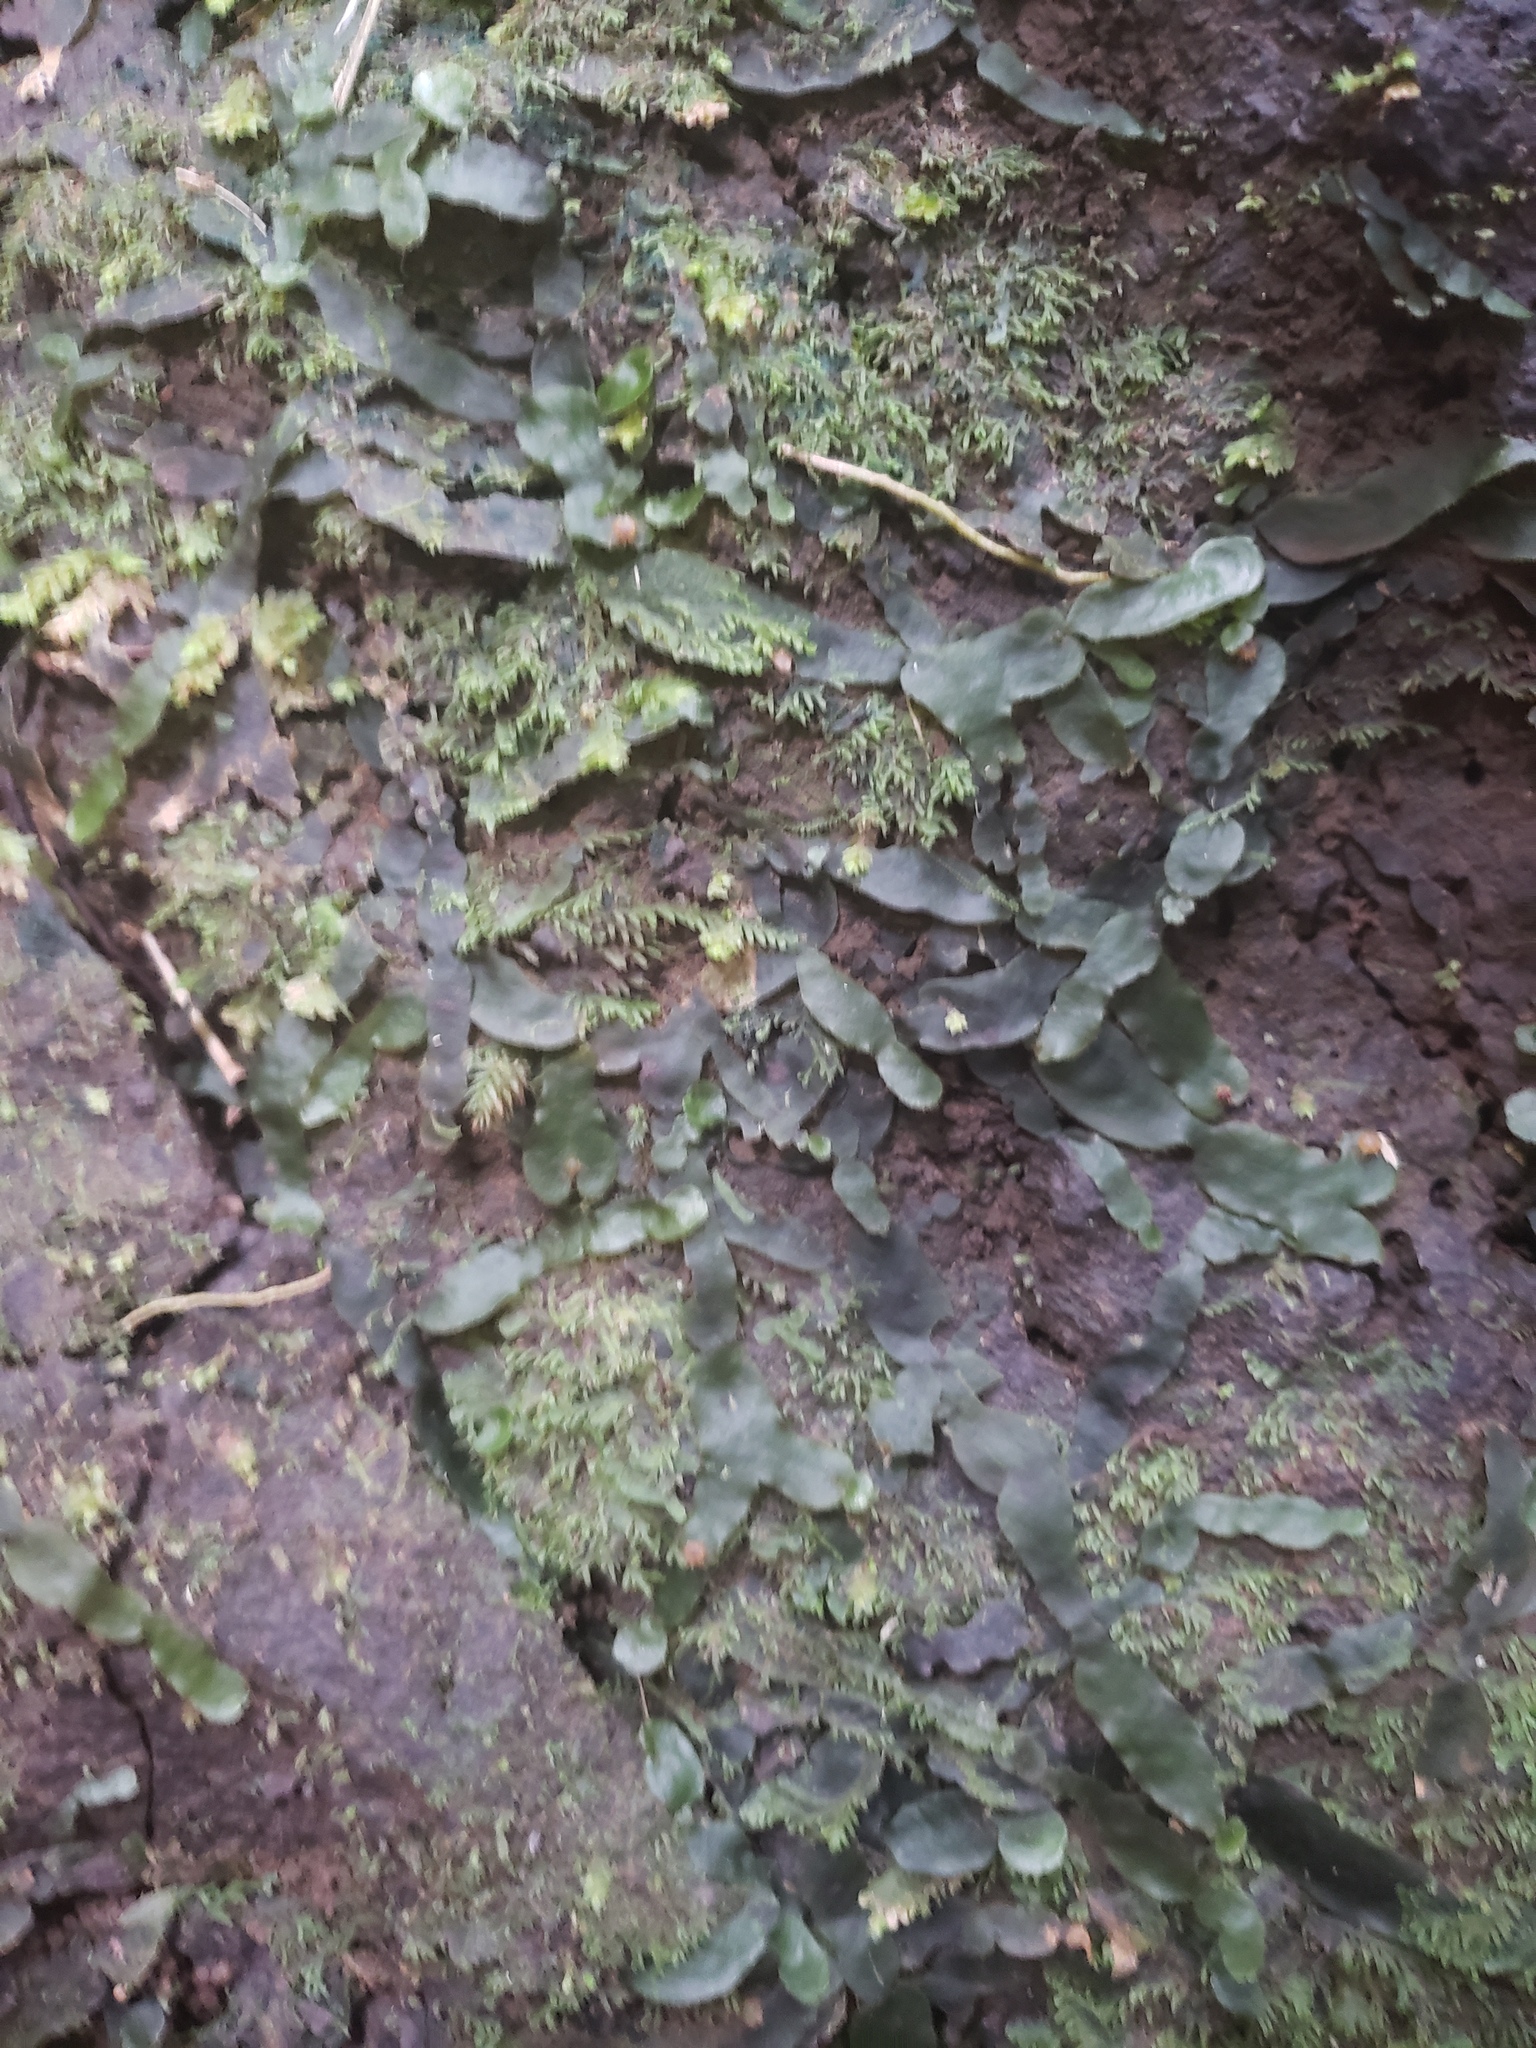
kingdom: Plantae
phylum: Marchantiophyta
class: Marchantiopsida
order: Marchantiales
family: Dumortieraceae
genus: Dumortiera
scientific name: Dumortiera hirsuta
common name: Dumortier's liverwort
